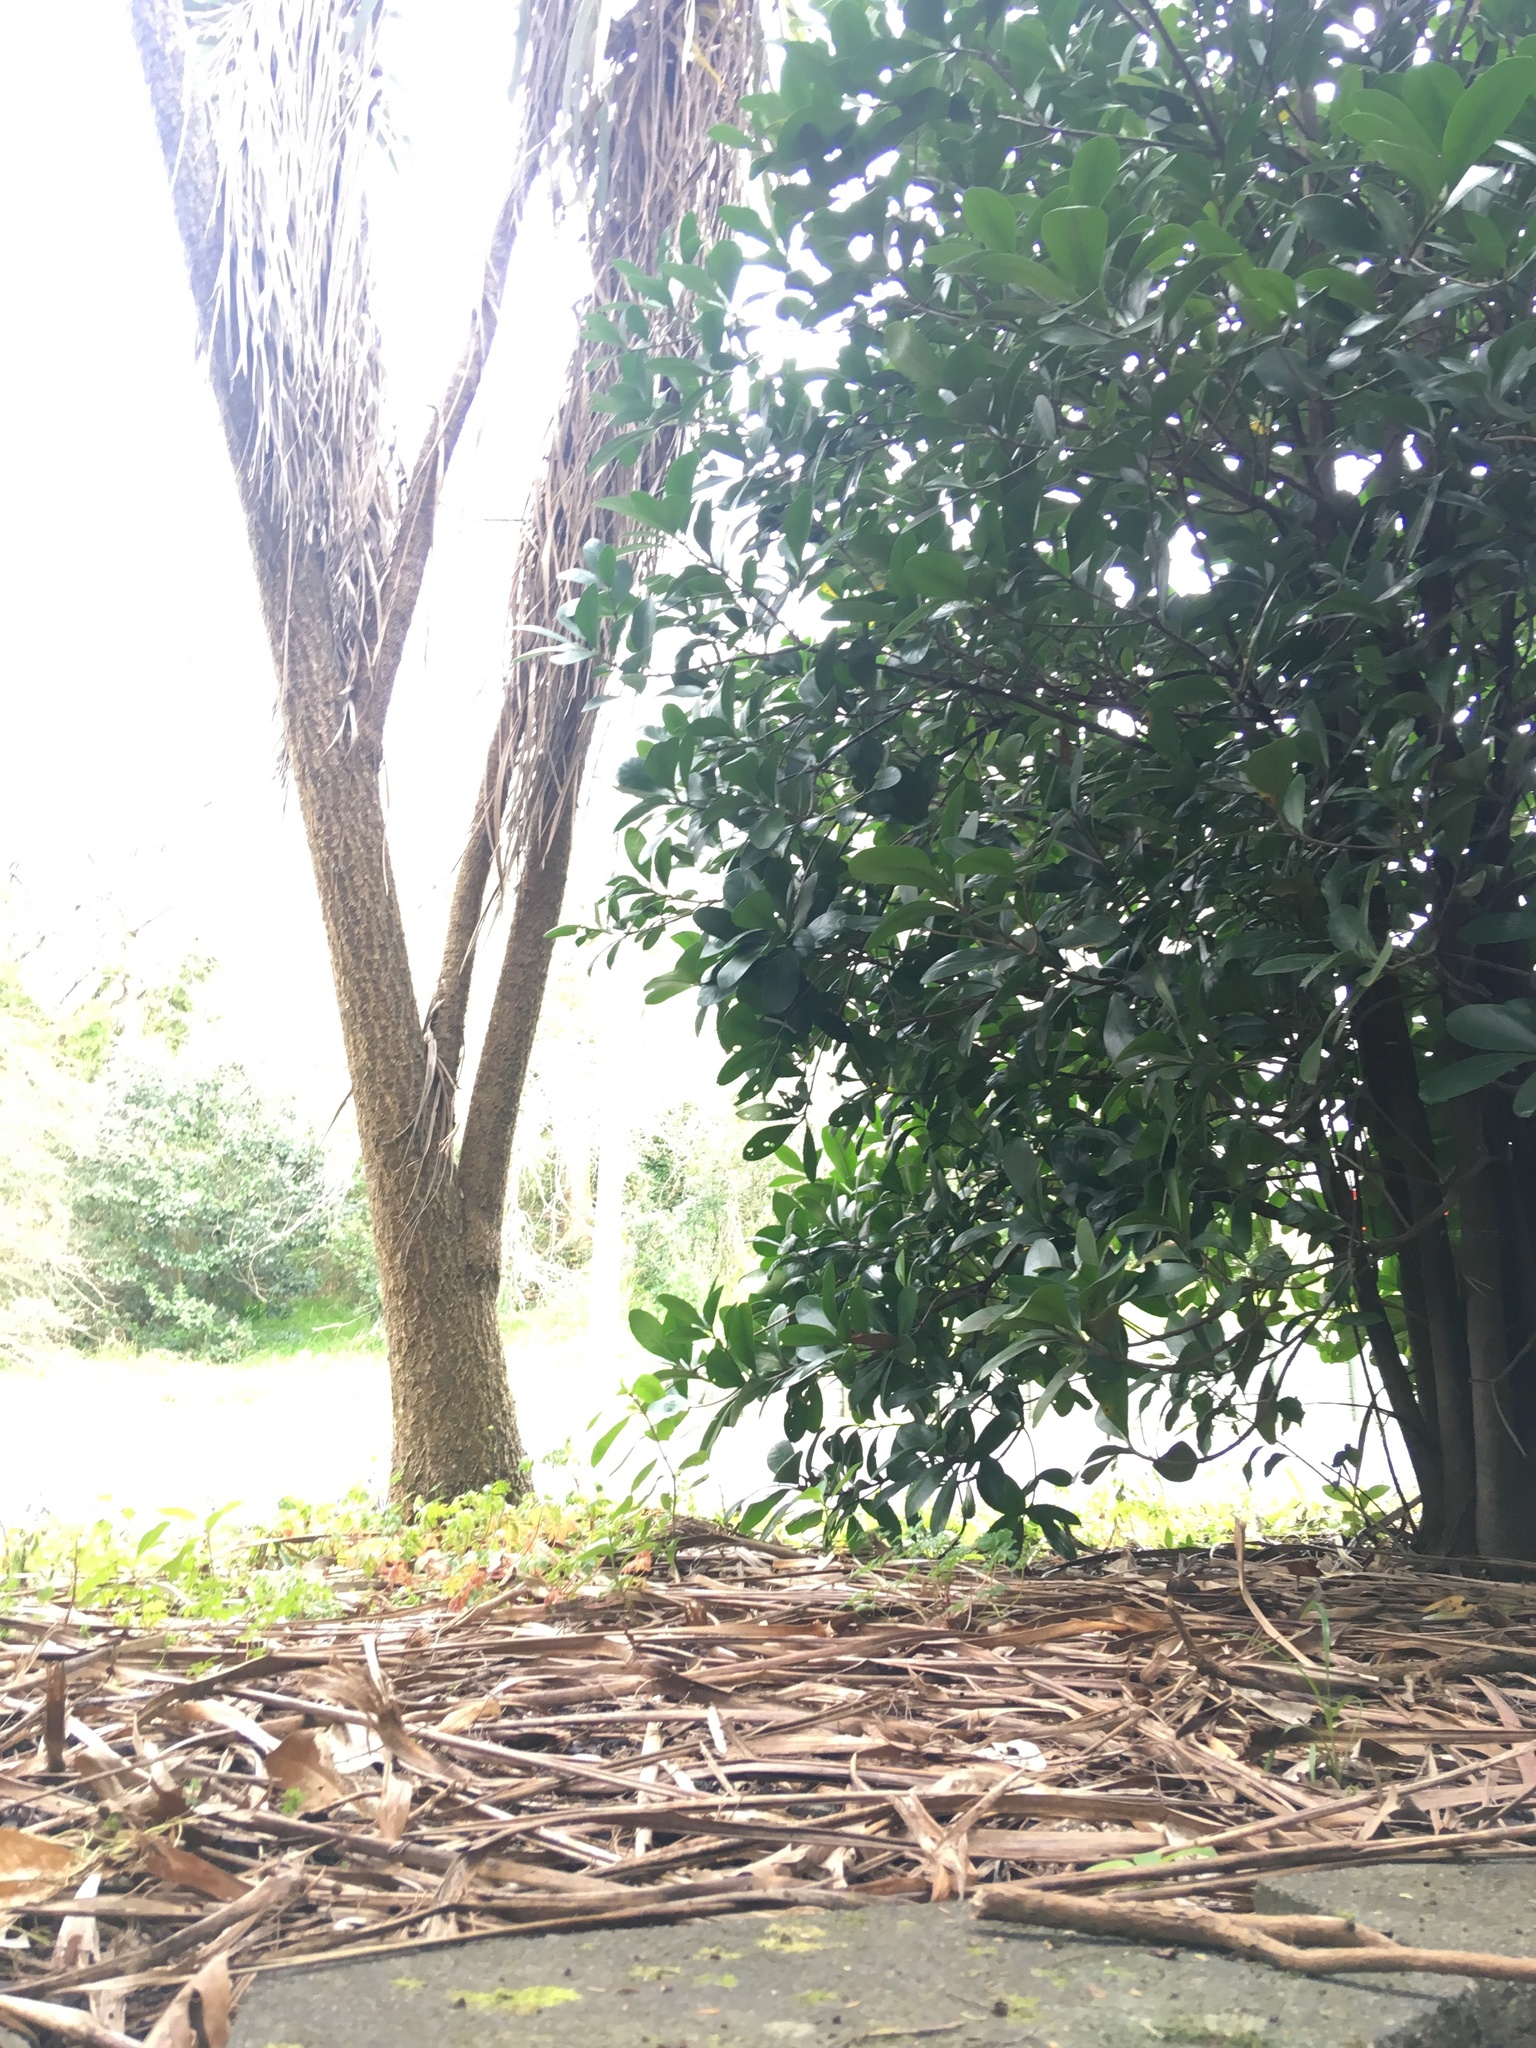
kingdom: Plantae
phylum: Tracheophyta
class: Liliopsida
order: Asparagales
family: Asparagaceae
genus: Cordyline
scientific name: Cordyline australis
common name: Cabbage-palm
